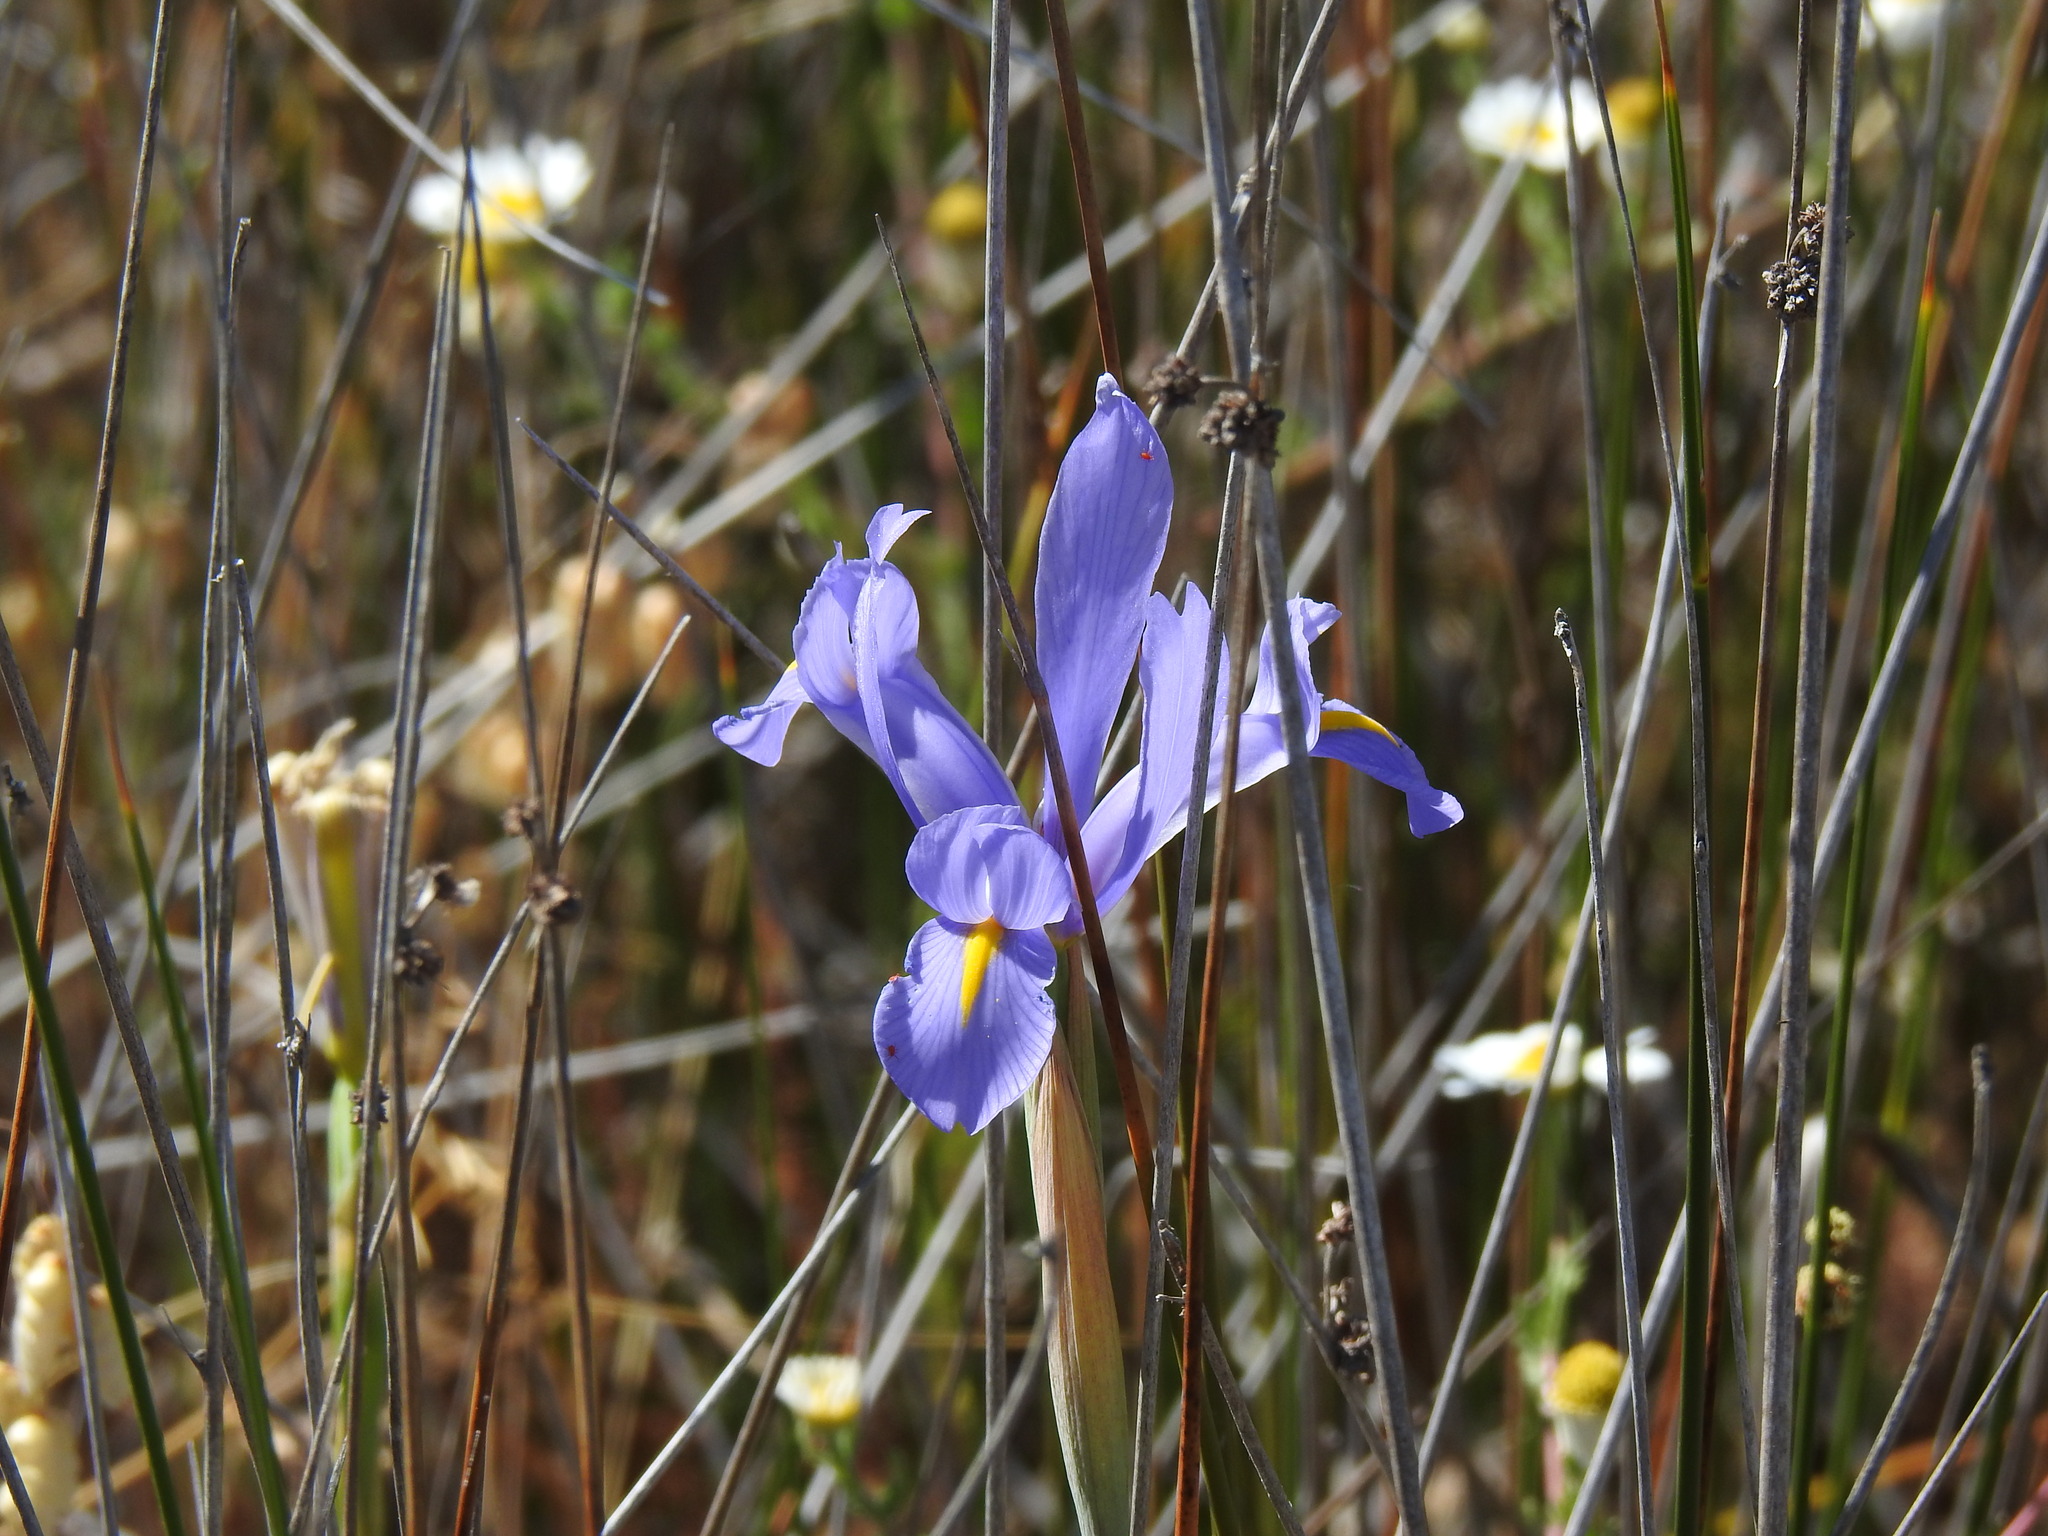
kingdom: Plantae
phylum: Tracheophyta
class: Liliopsida
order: Asparagales
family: Iridaceae
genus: Iris
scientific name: Iris xiphium
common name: Spanish iris
